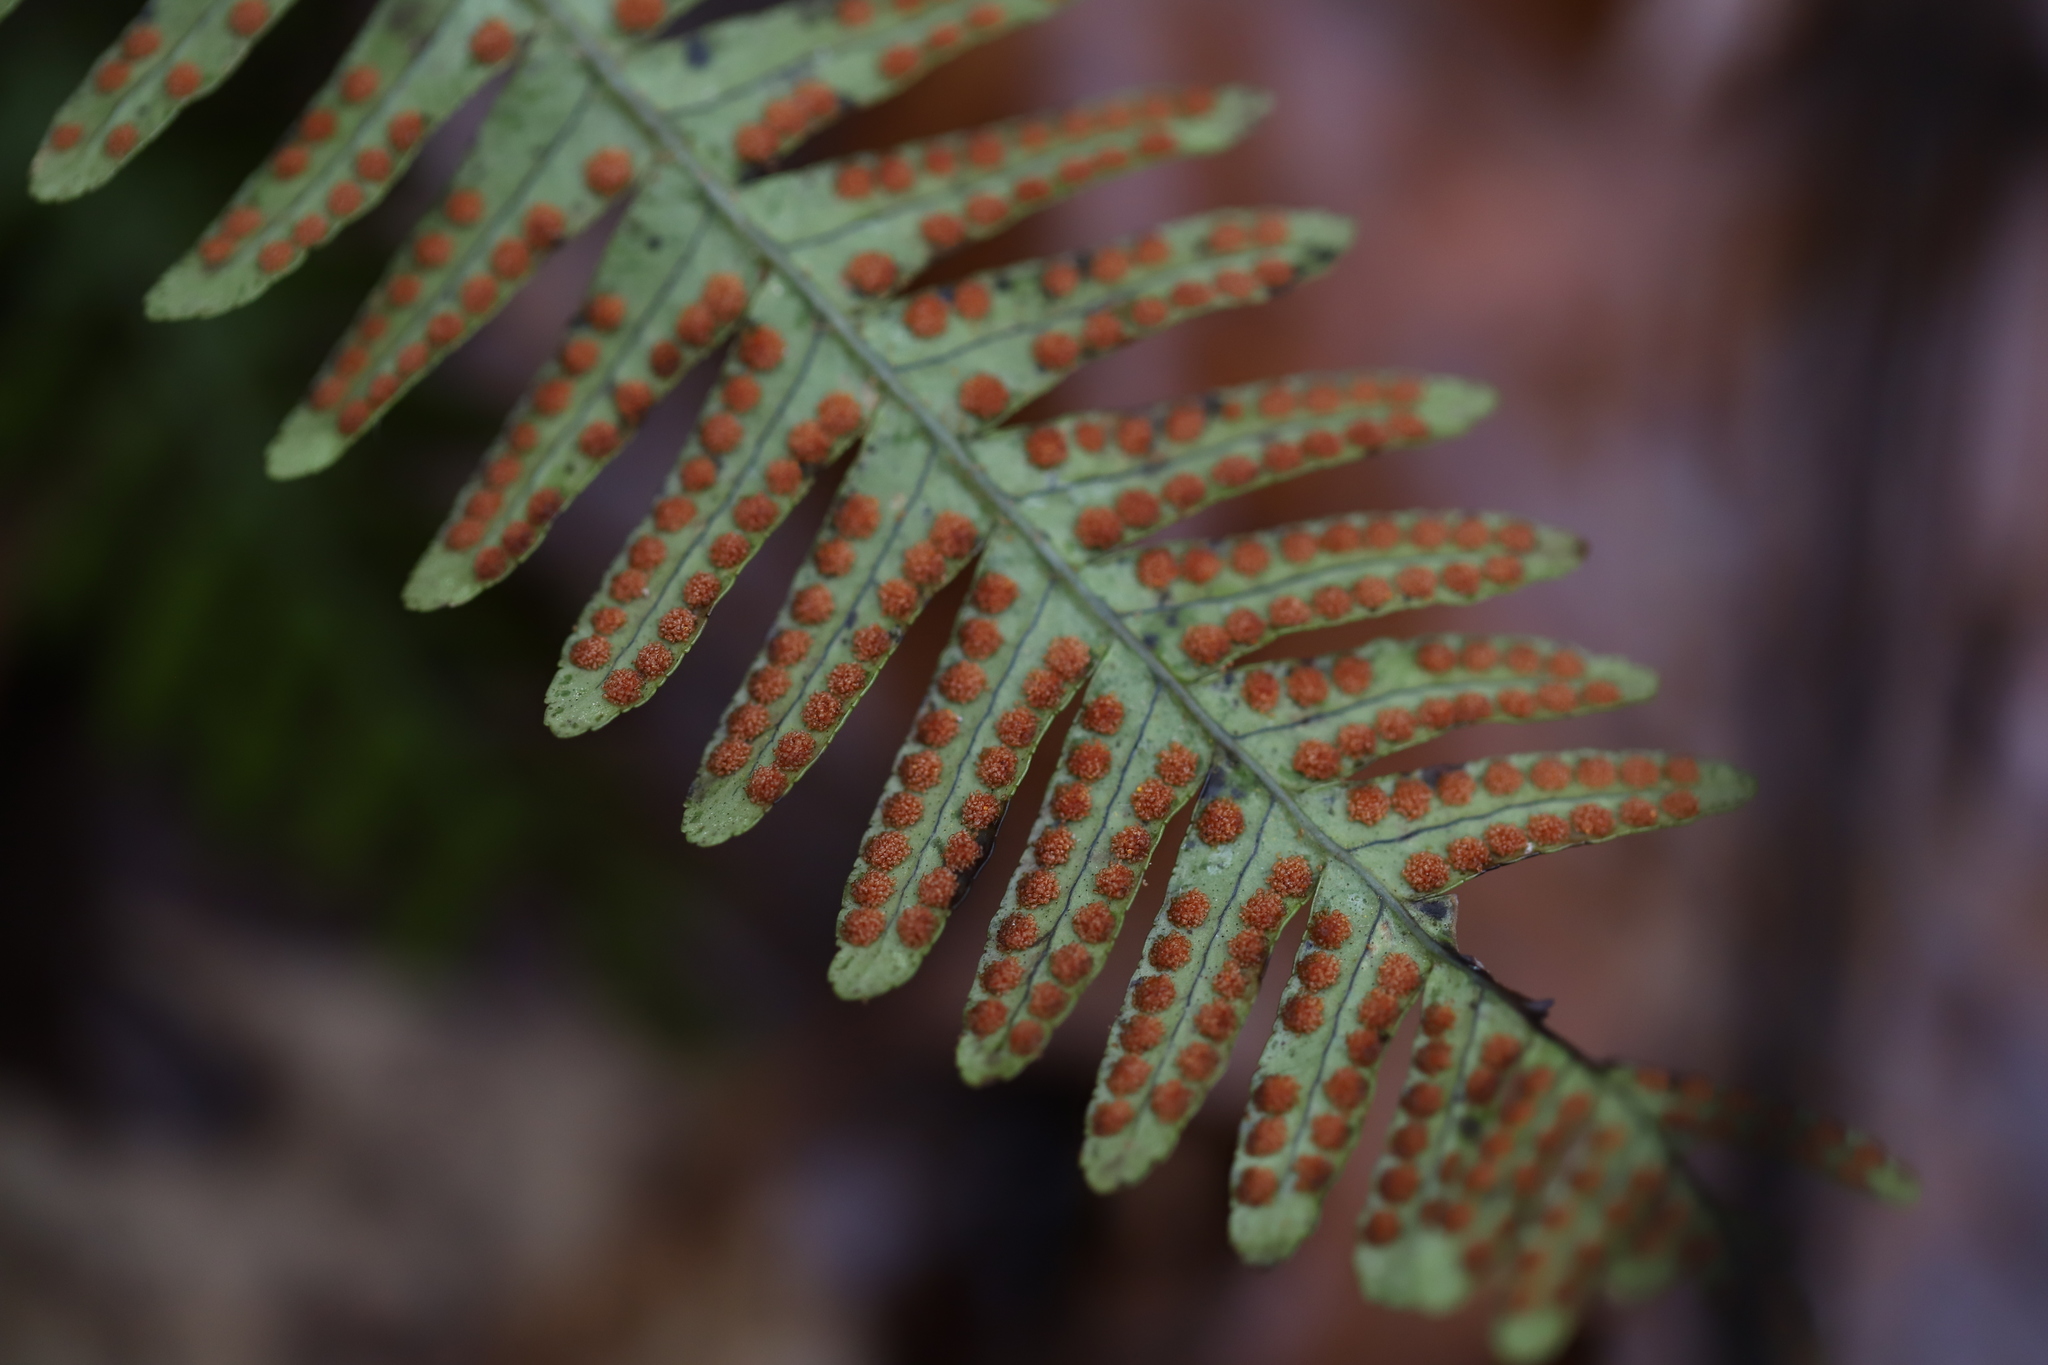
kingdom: Plantae
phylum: Tracheophyta
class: Polypodiopsida
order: Polypodiales
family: Polypodiaceae
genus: Polypodium
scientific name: Polypodium virginianum
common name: American wall fern
